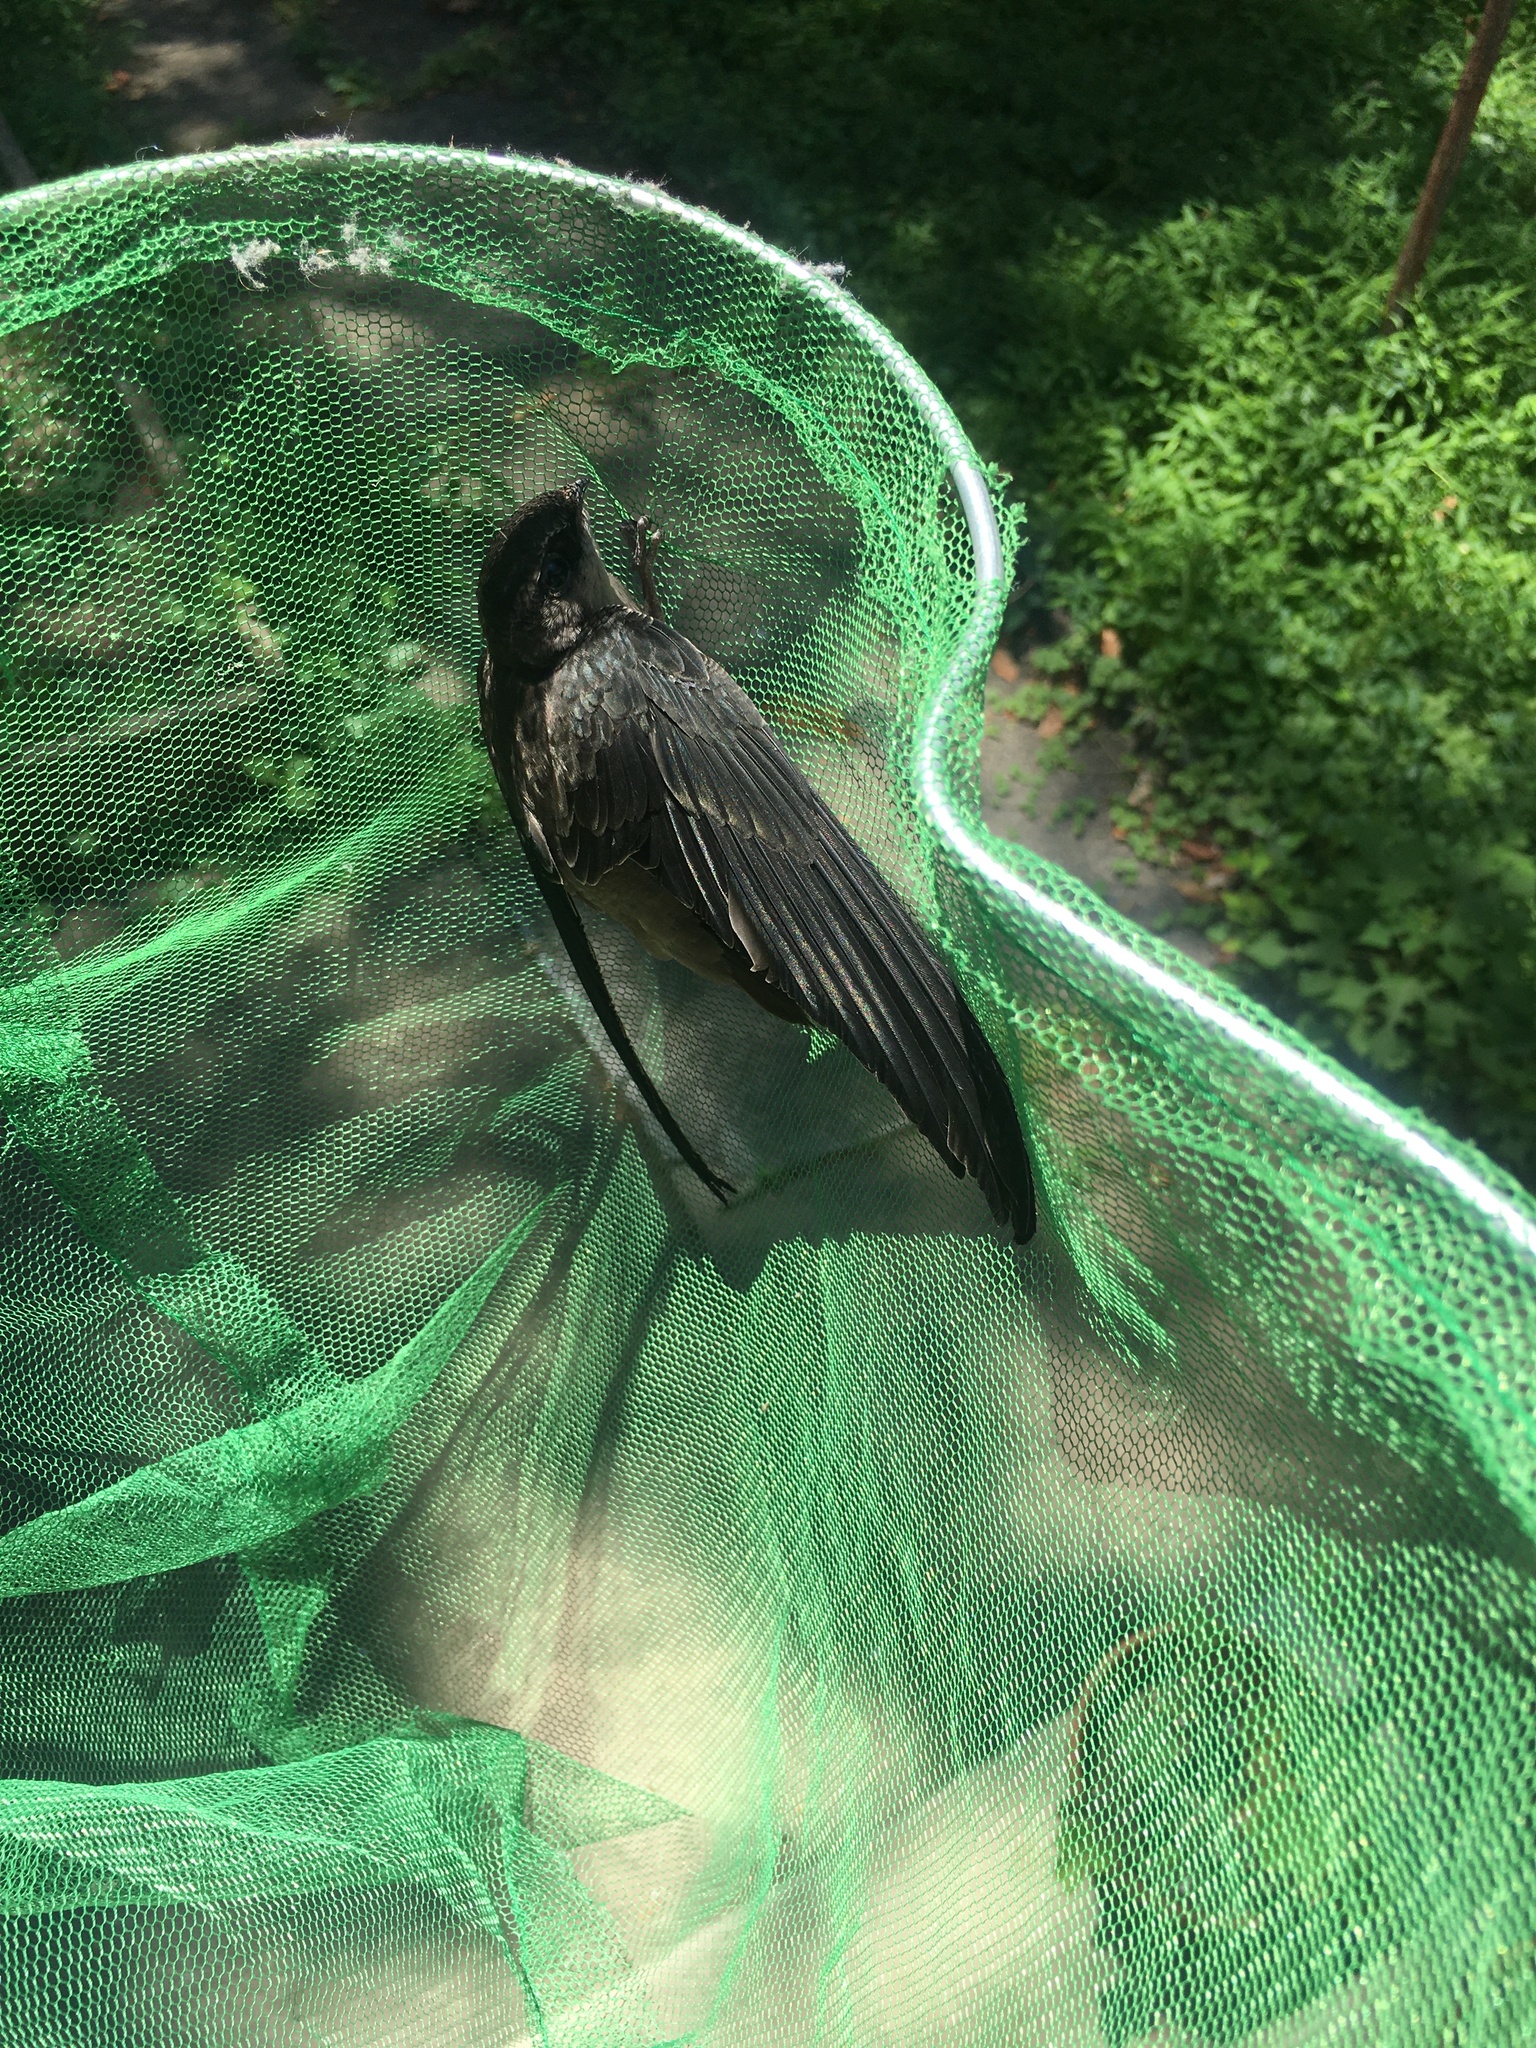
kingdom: Animalia
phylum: Chordata
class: Aves
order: Apodiformes
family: Apodidae
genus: Chaetura
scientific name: Chaetura pelagica
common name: Chimney swift
